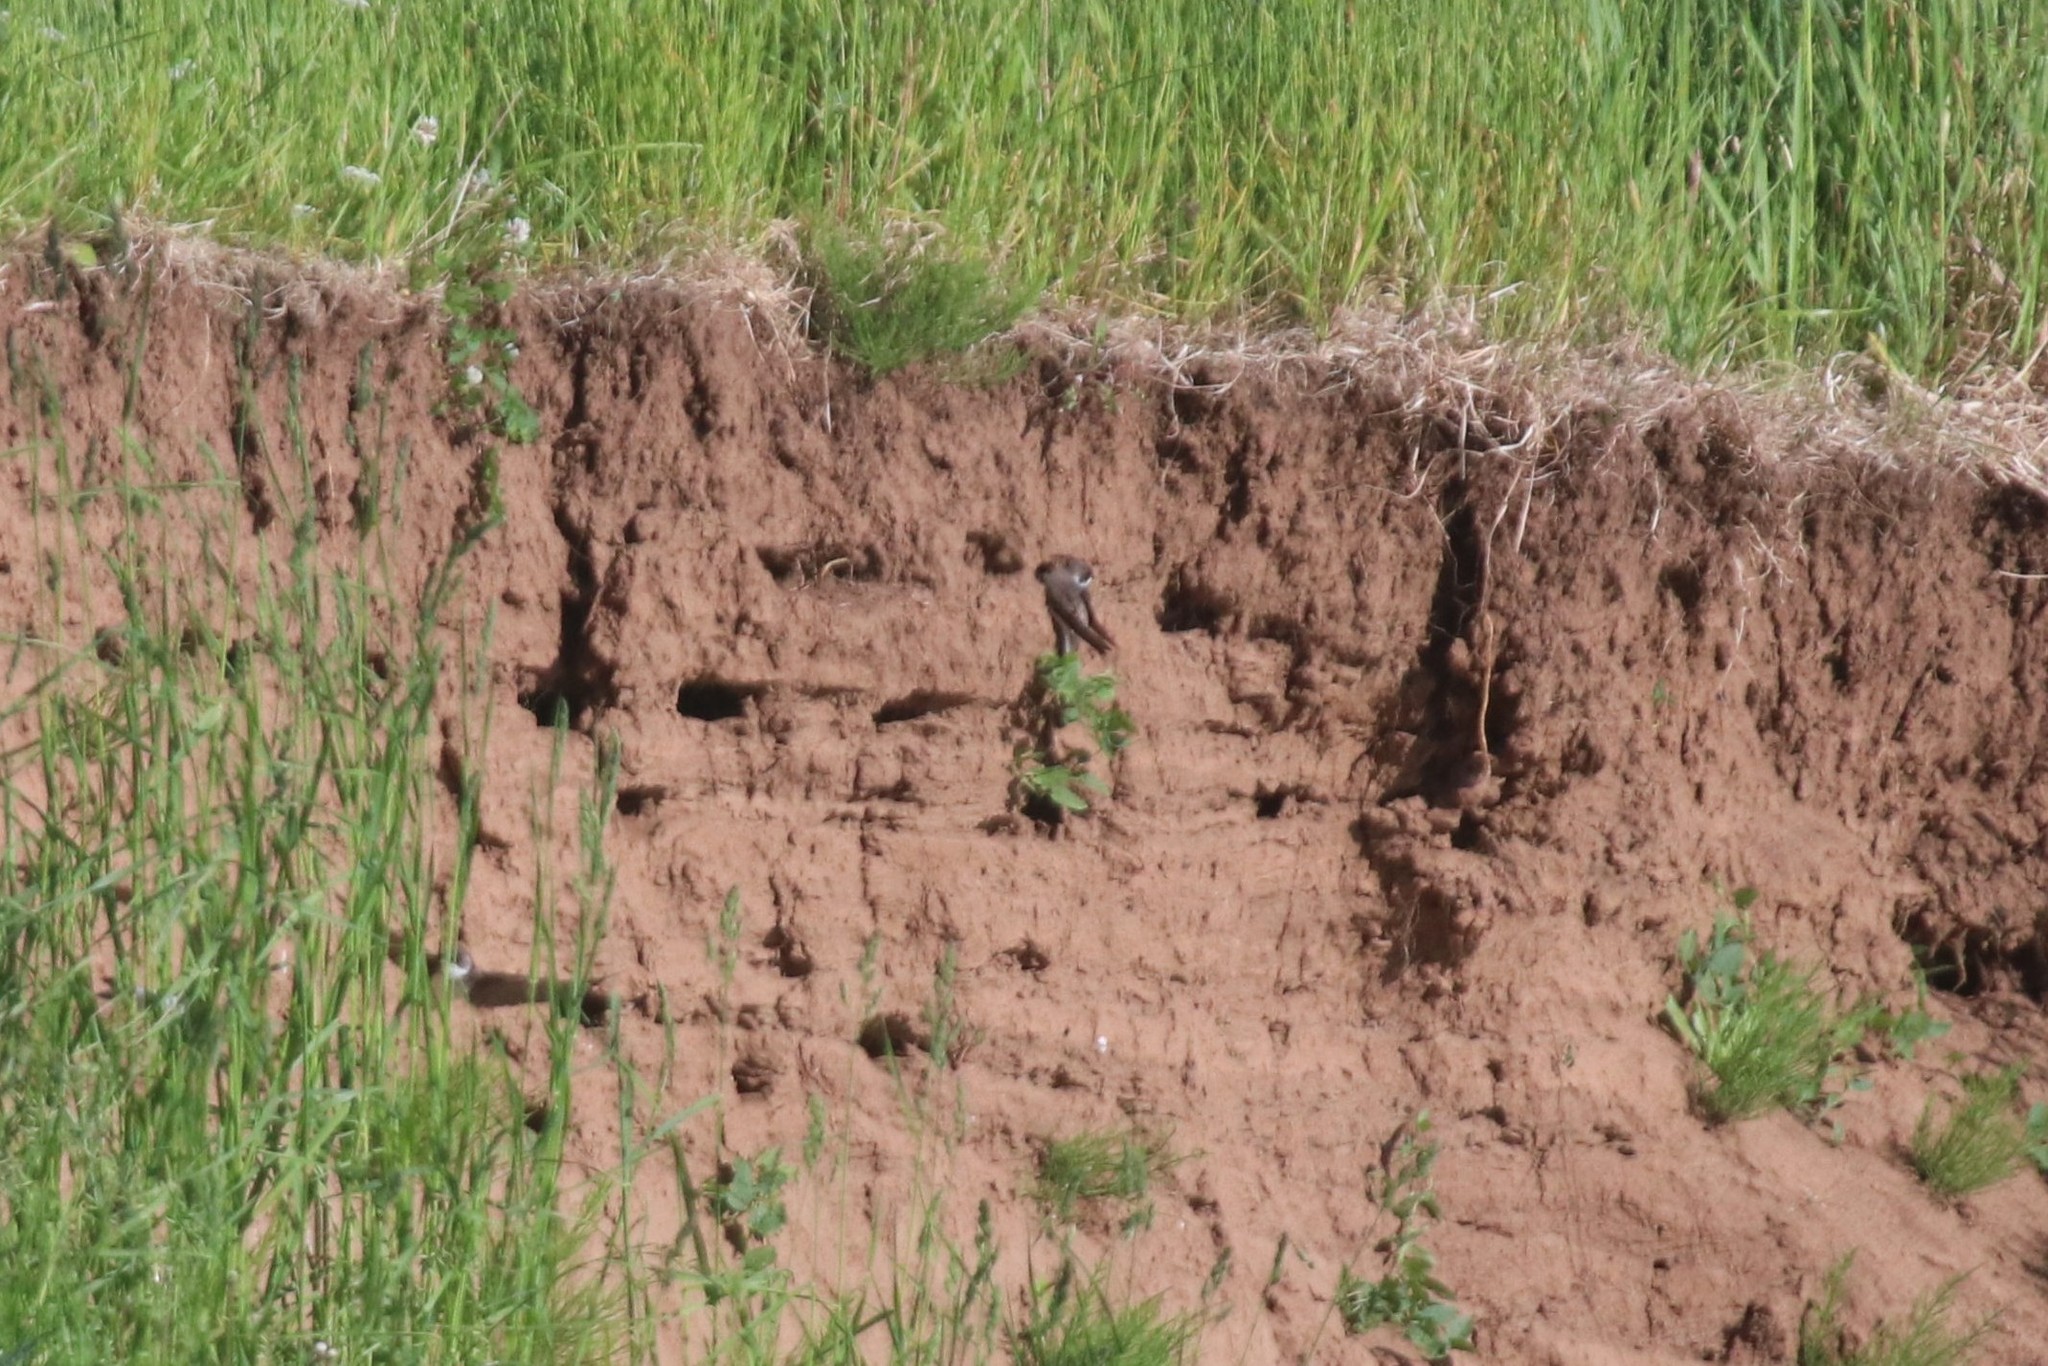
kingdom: Animalia
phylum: Chordata
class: Aves
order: Passeriformes
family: Hirundinidae
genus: Riparia
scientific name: Riparia riparia
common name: Sand martin
